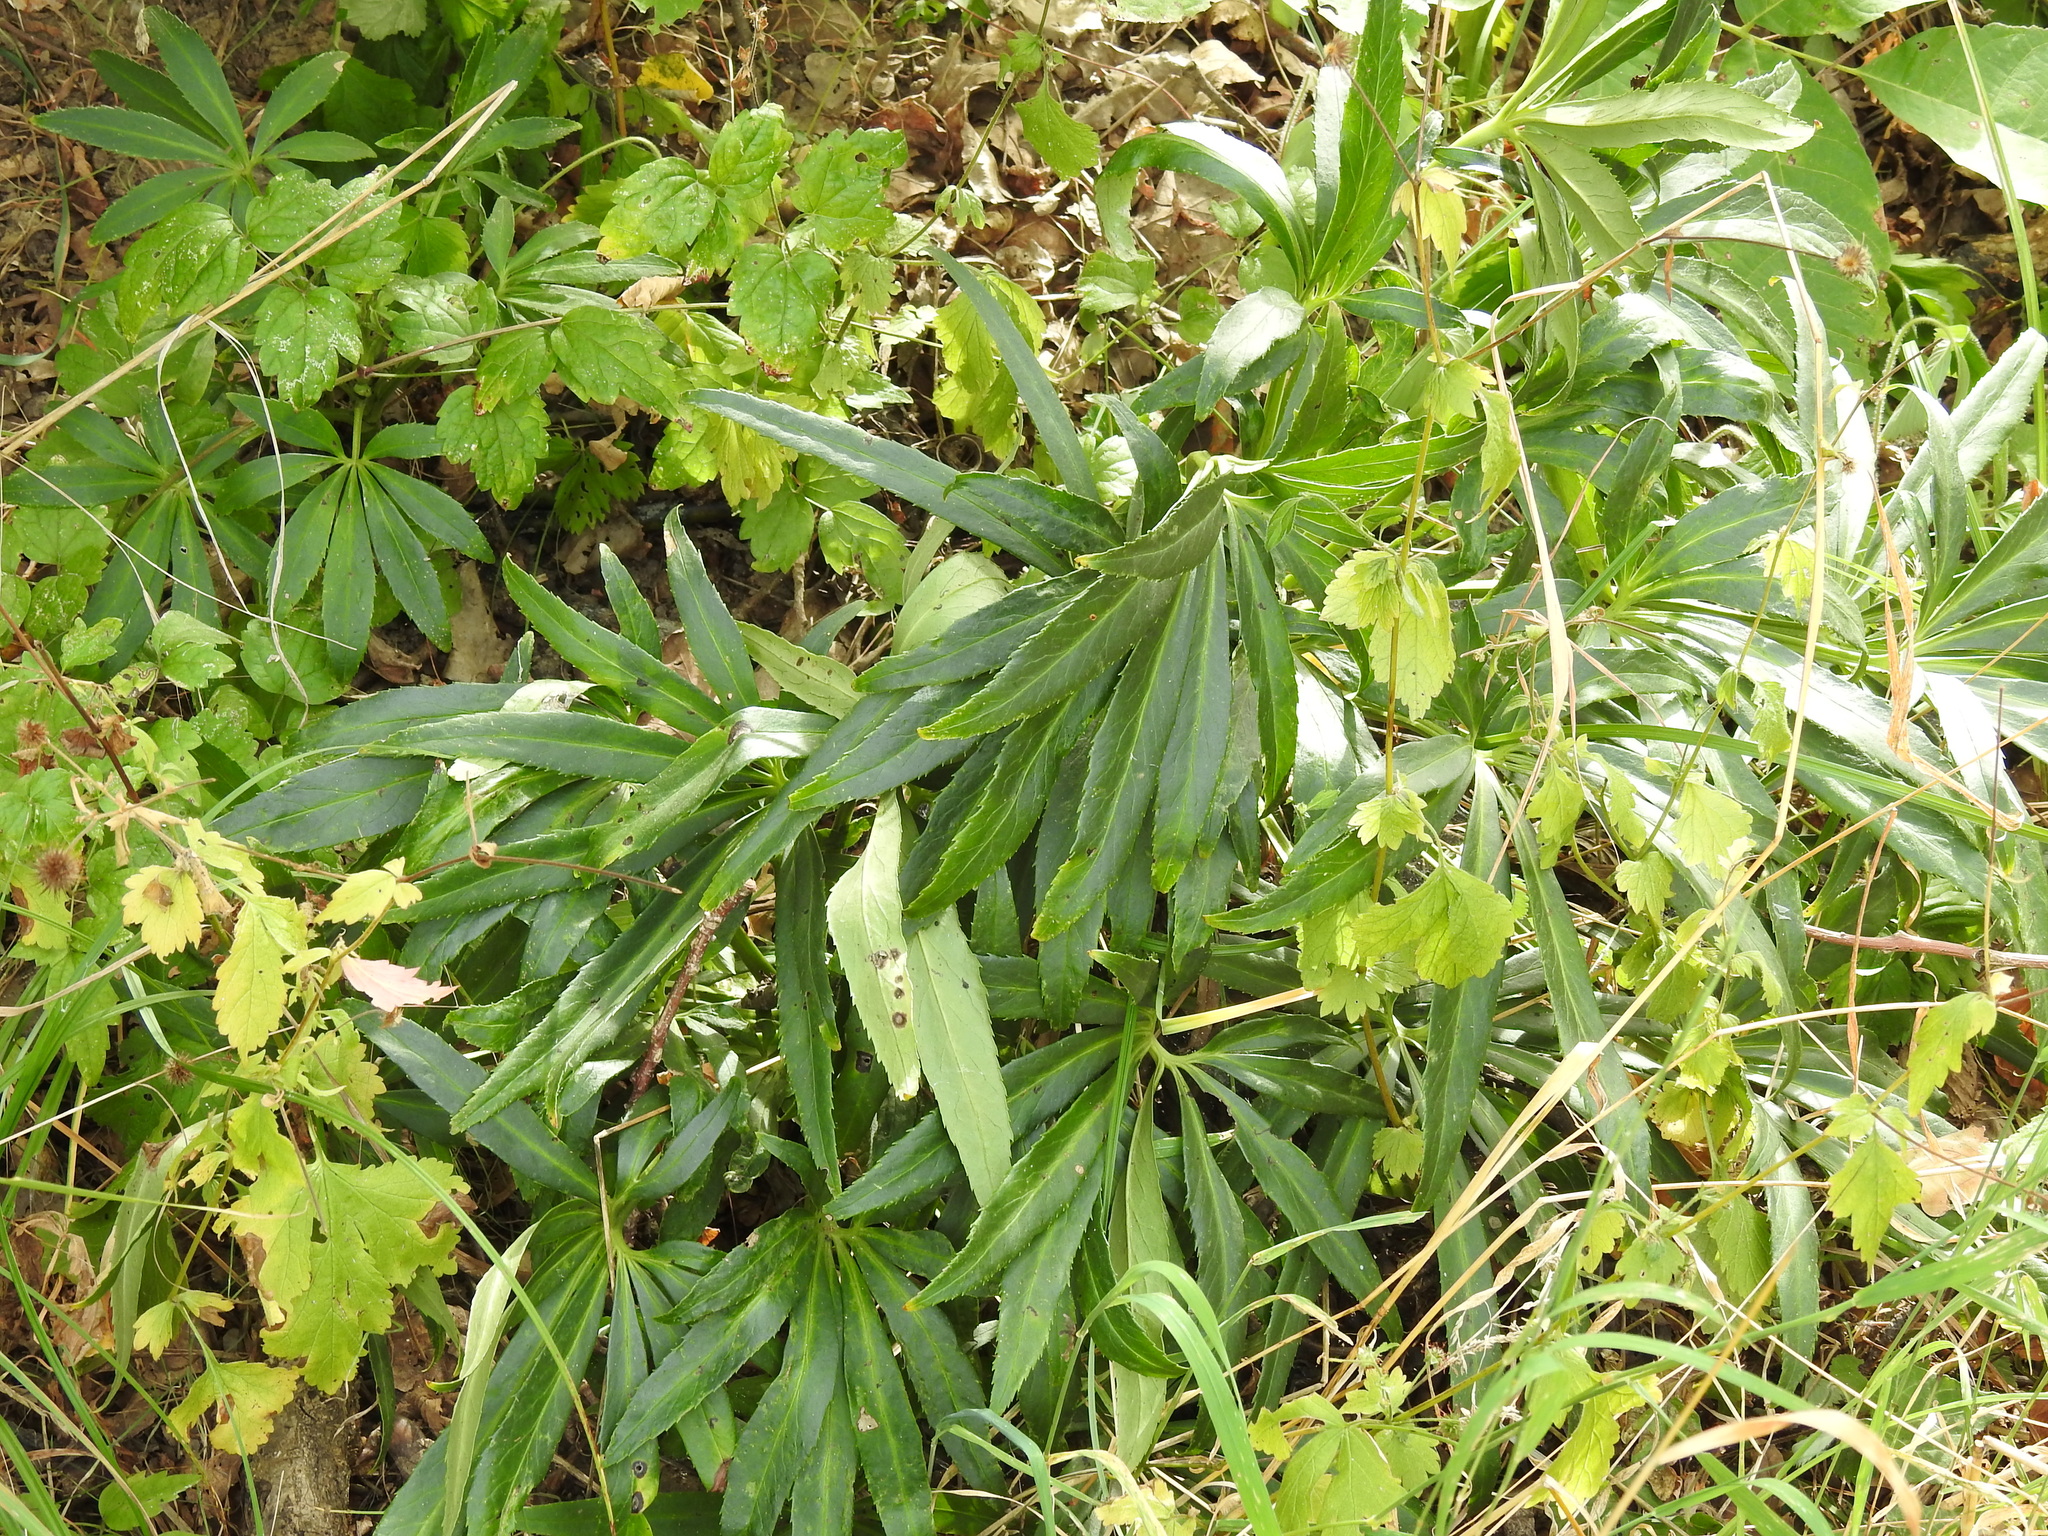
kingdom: Plantae
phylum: Tracheophyta
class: Magnoliopsida
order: Ranunculales
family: Ranunculaceae
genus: Helleborus
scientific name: Helleborus foetidus
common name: Stinking hellebore
